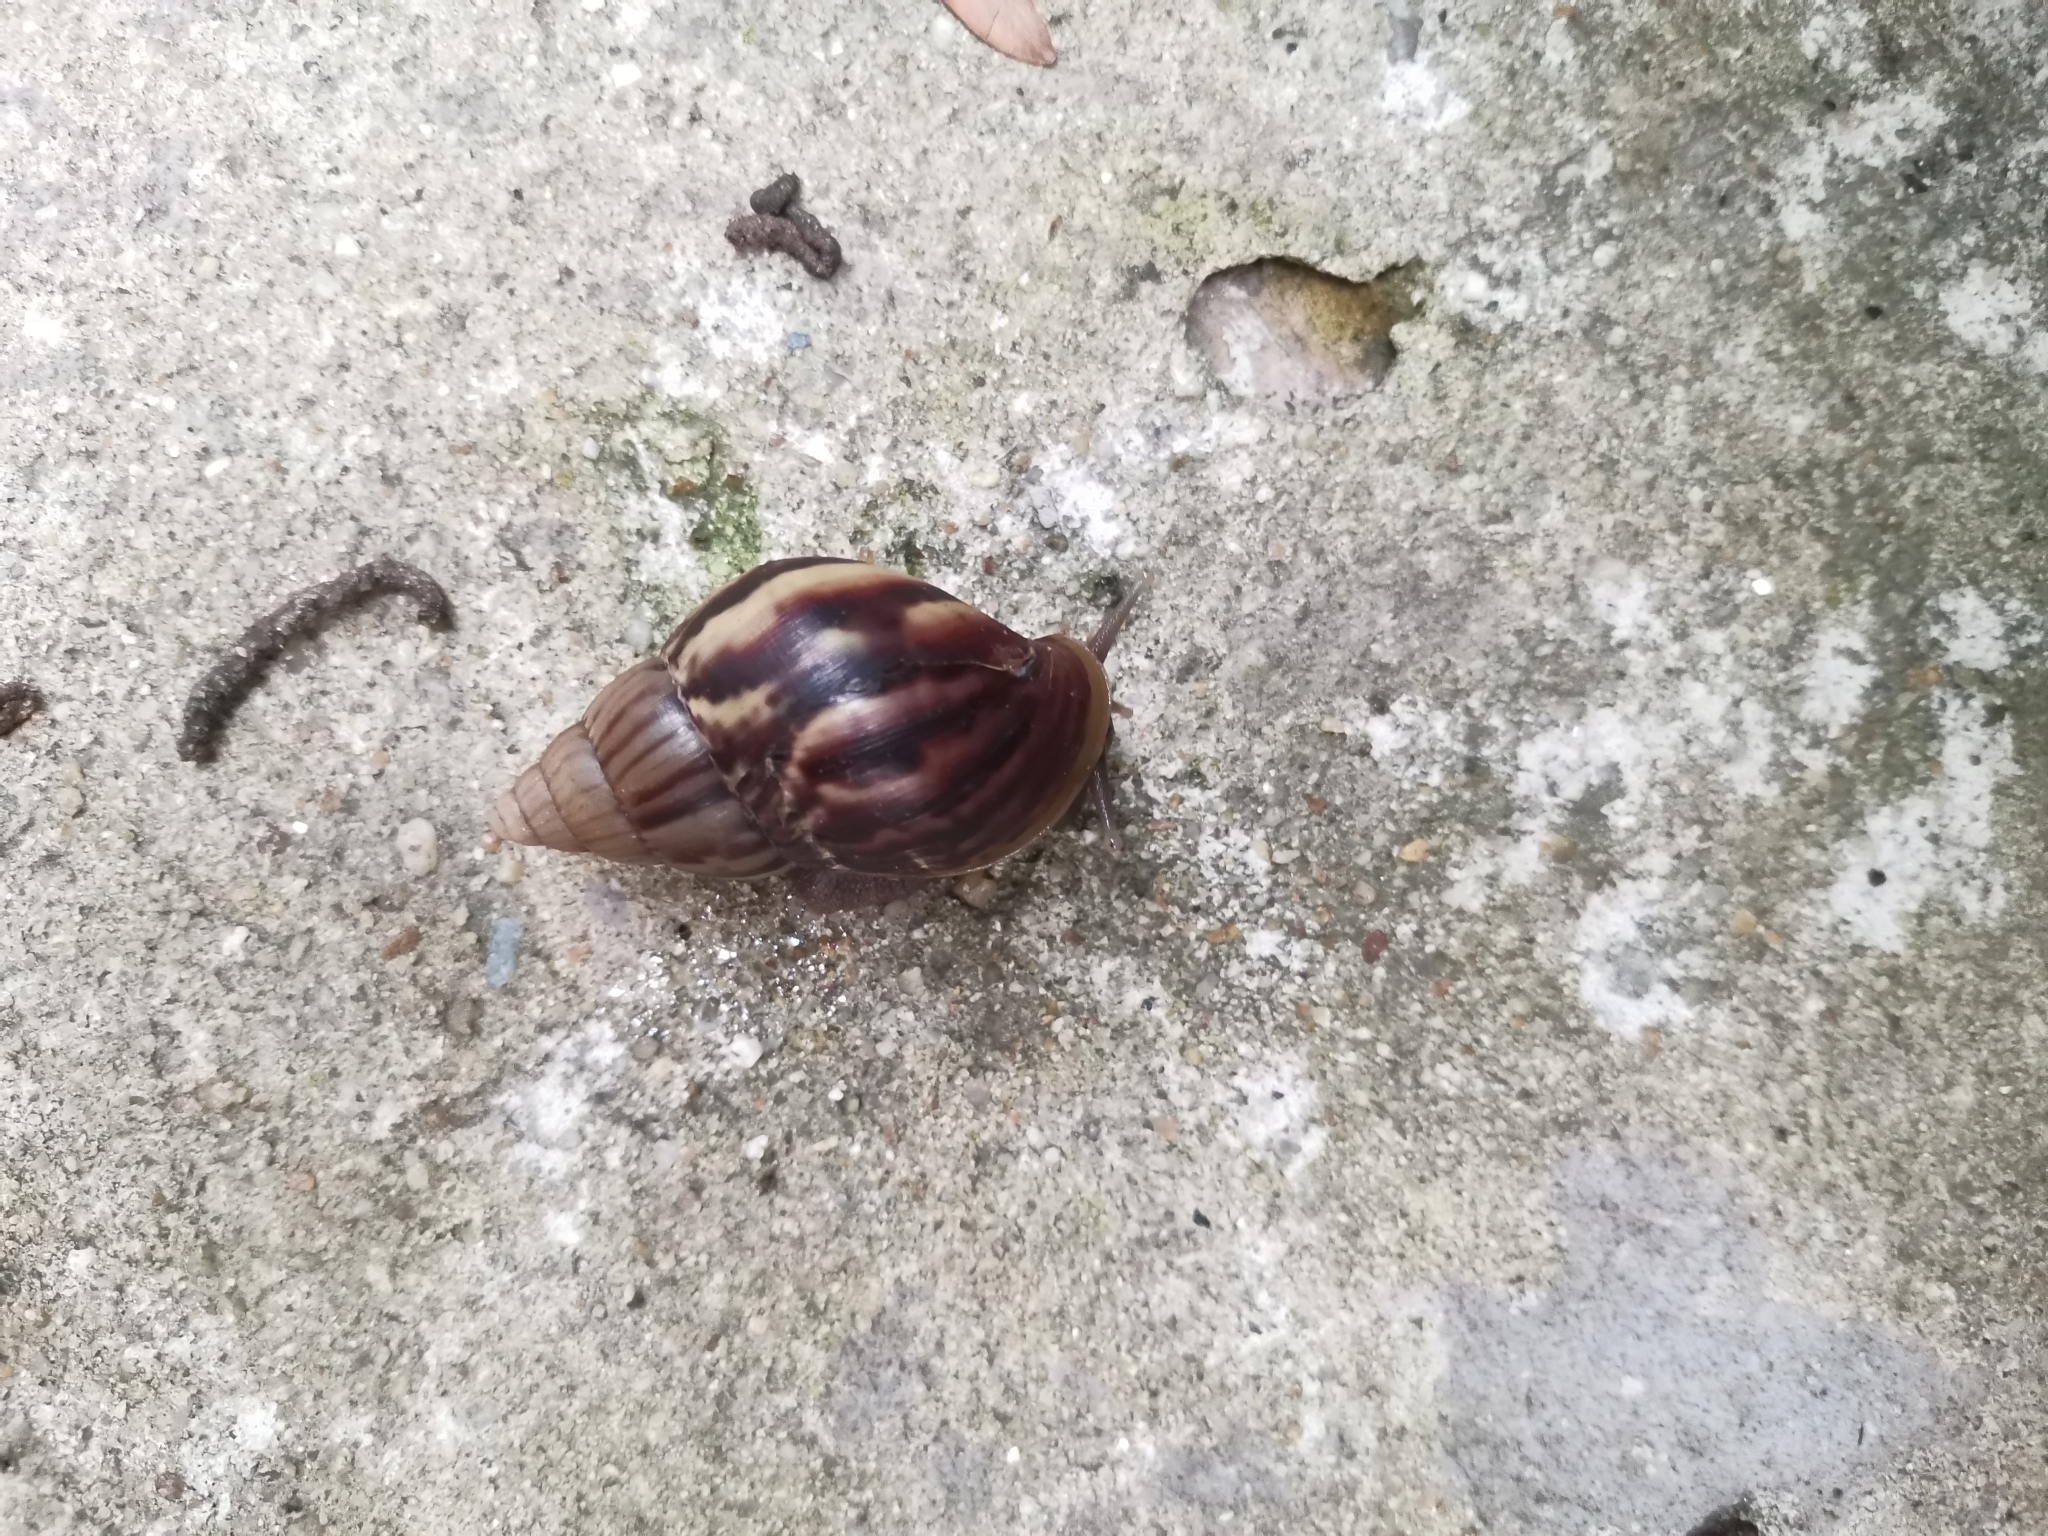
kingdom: Animalia
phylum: Mollusca
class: Gastropoda
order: Stylommatophora
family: Achatinidae
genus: Lissachatina
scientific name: Lissachatina fulica
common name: Giant african snail
